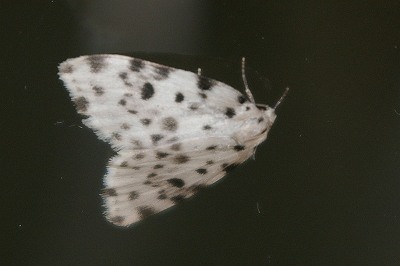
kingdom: Animalia
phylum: Arthropoda
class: Insecta
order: Lepidoptera
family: Erebidae
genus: Siccia
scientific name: Siccia altaica
